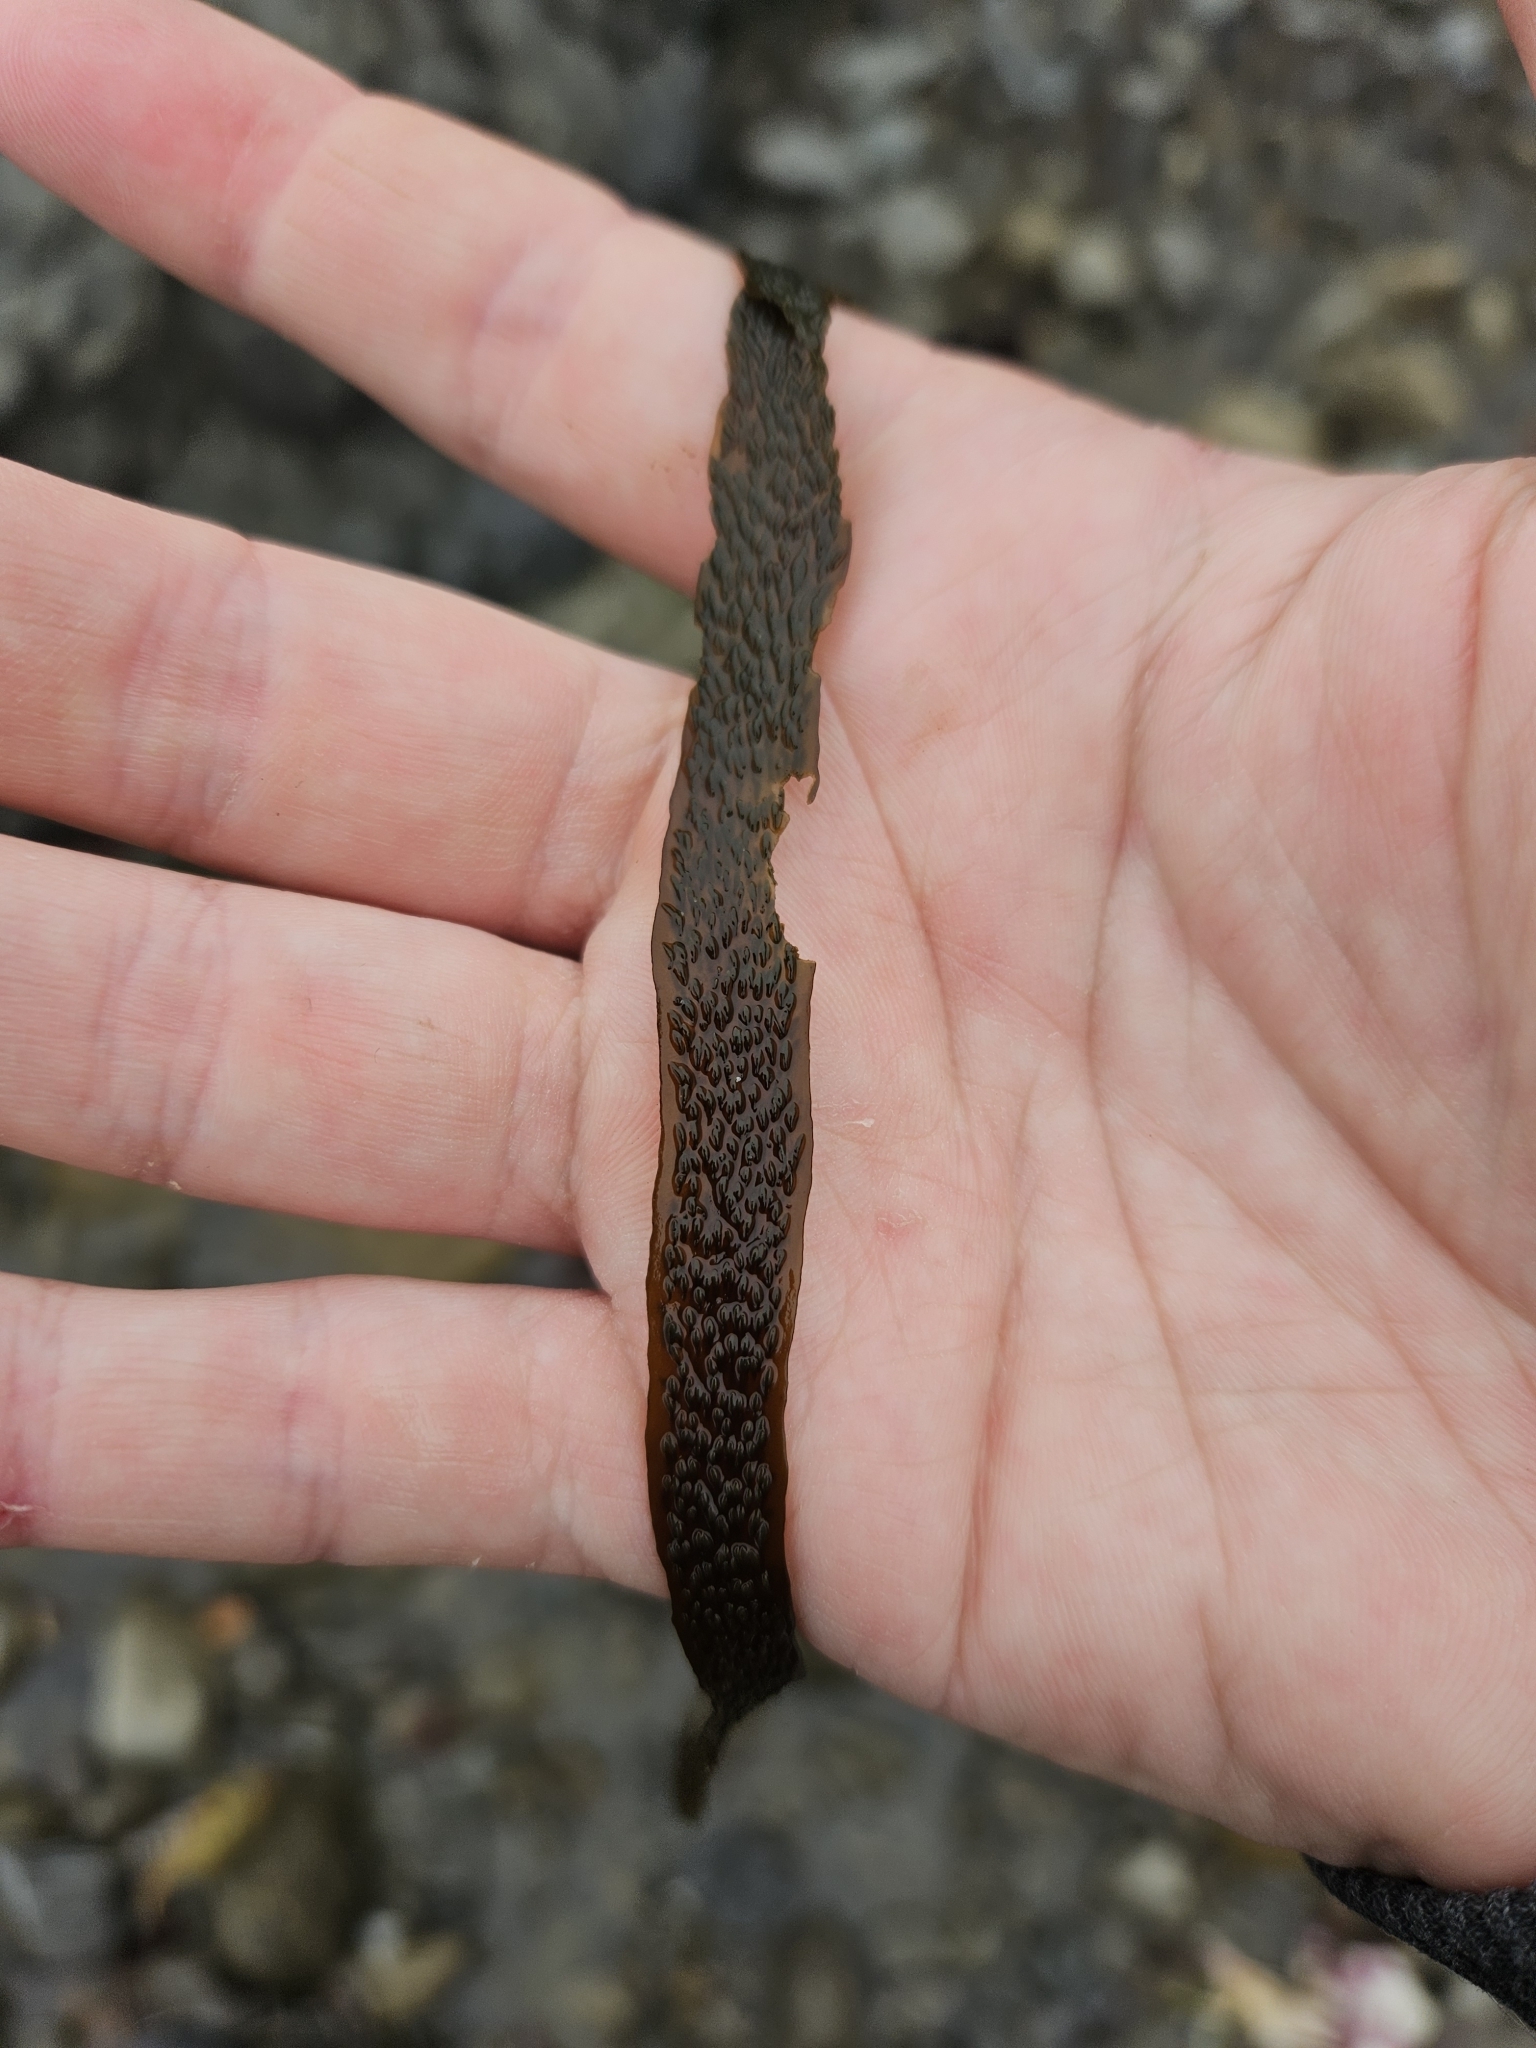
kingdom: Chromista
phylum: Ochrophyta
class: Phaeophyceae
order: Dictyotales
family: Dictyotaceae
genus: Dictyota
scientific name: Dictyota kunthii
